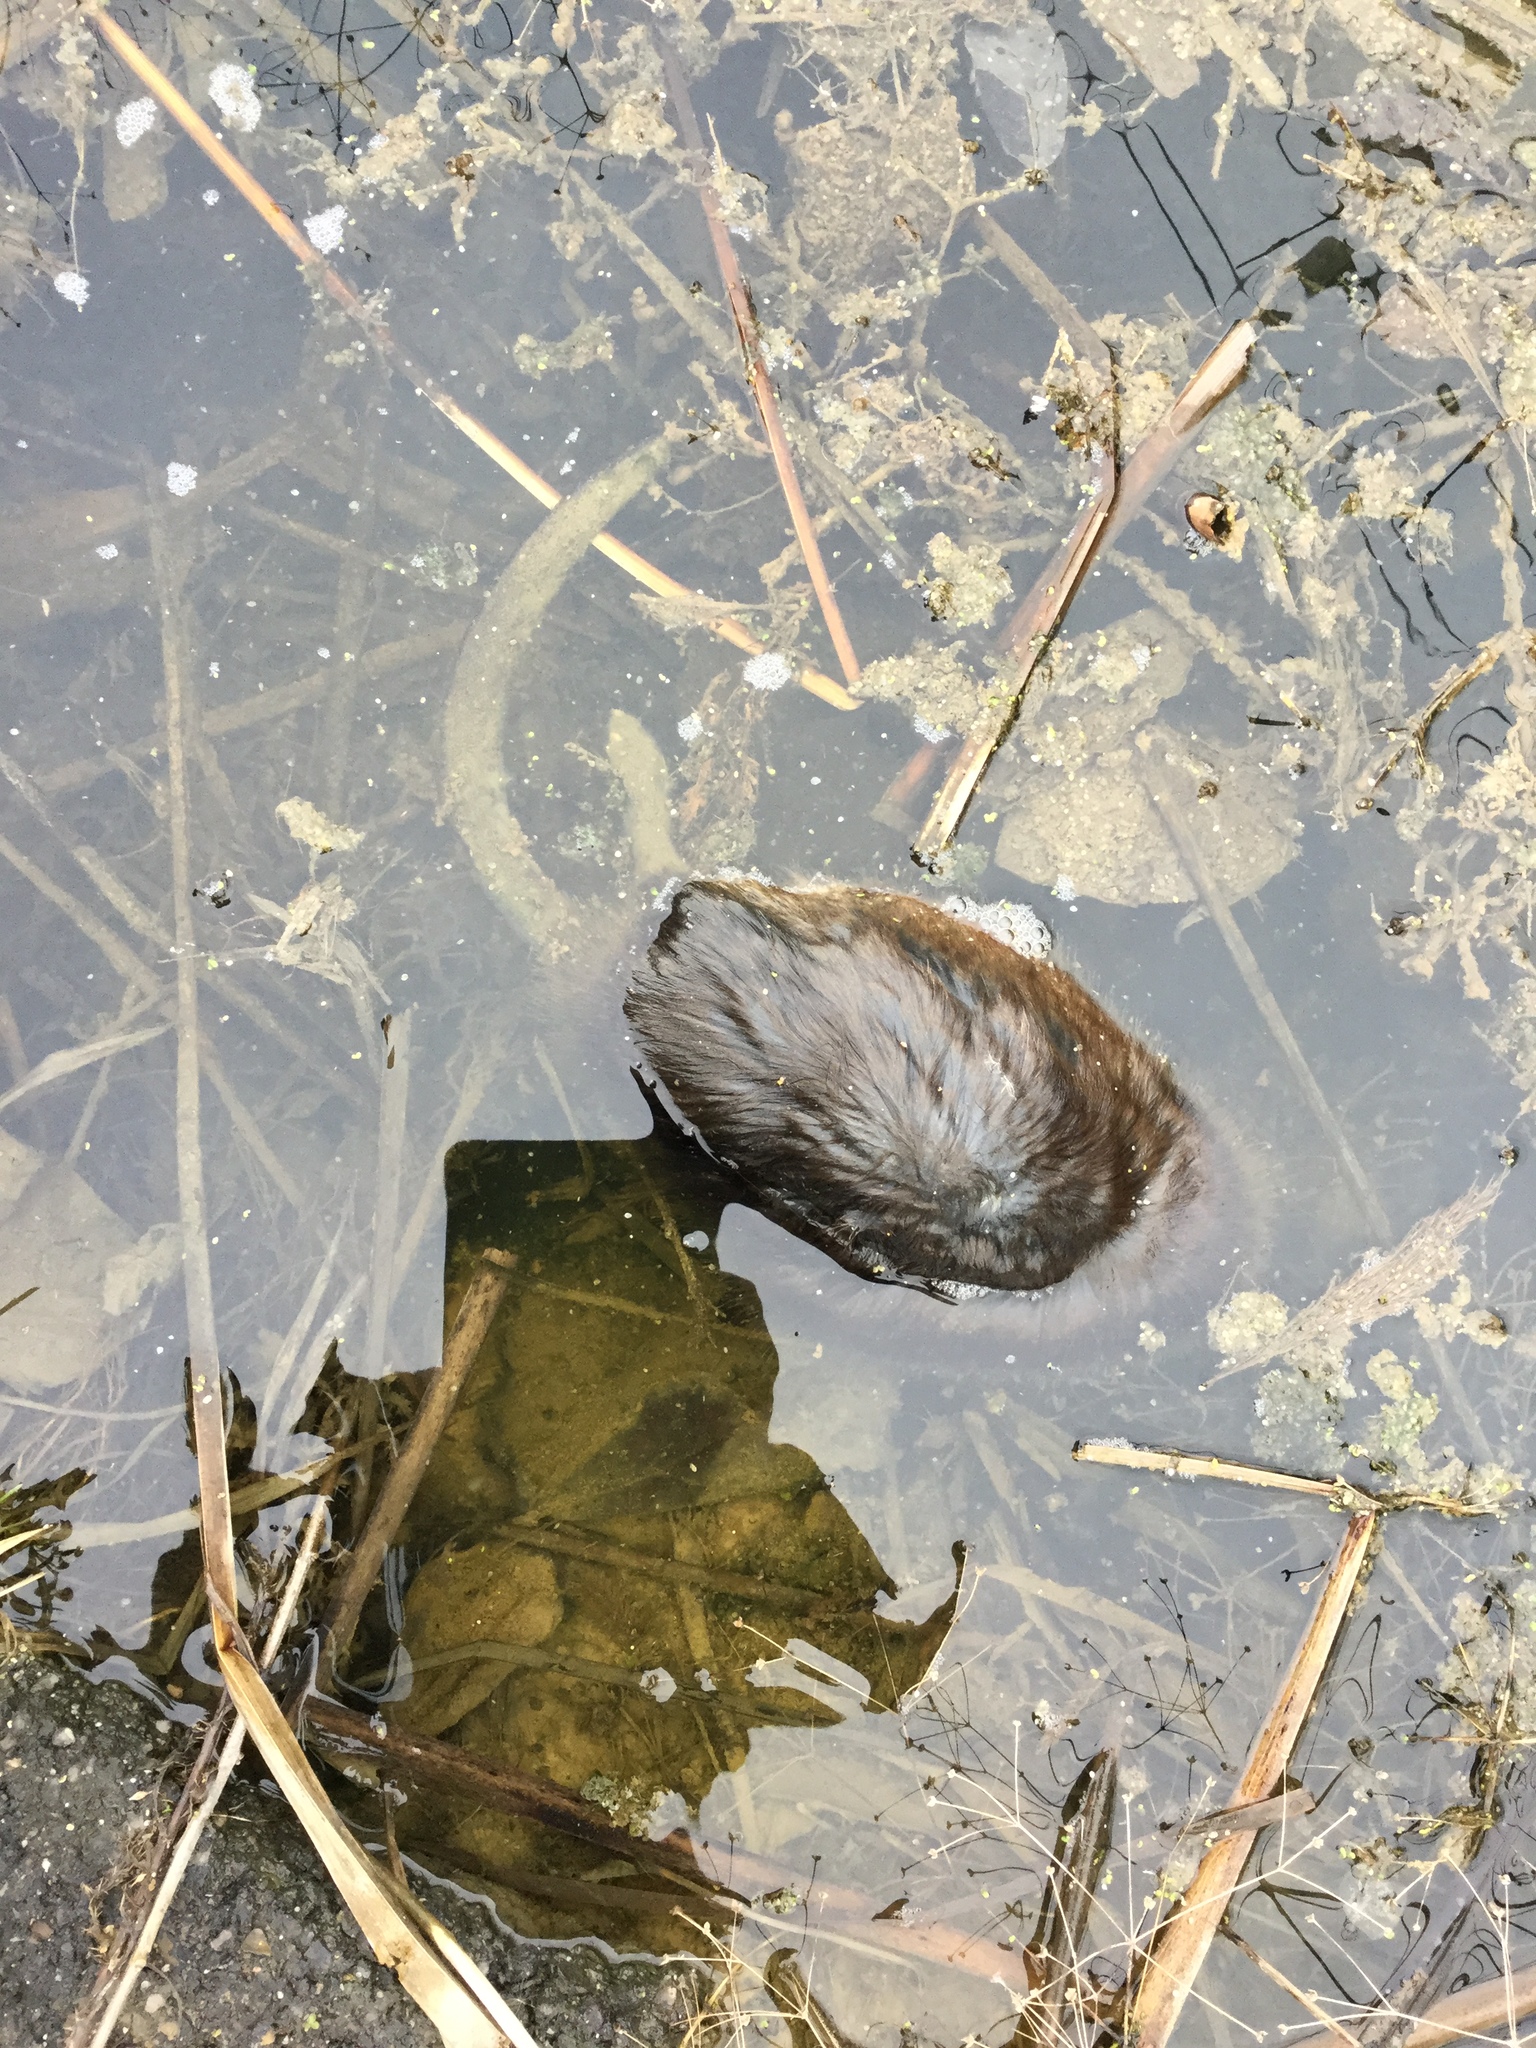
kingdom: Animalia
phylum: Chordata
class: Mammalia
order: Rodentia
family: Cricetidae
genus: Ondatra
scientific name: Ondatra zibethicus
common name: Muskrat
